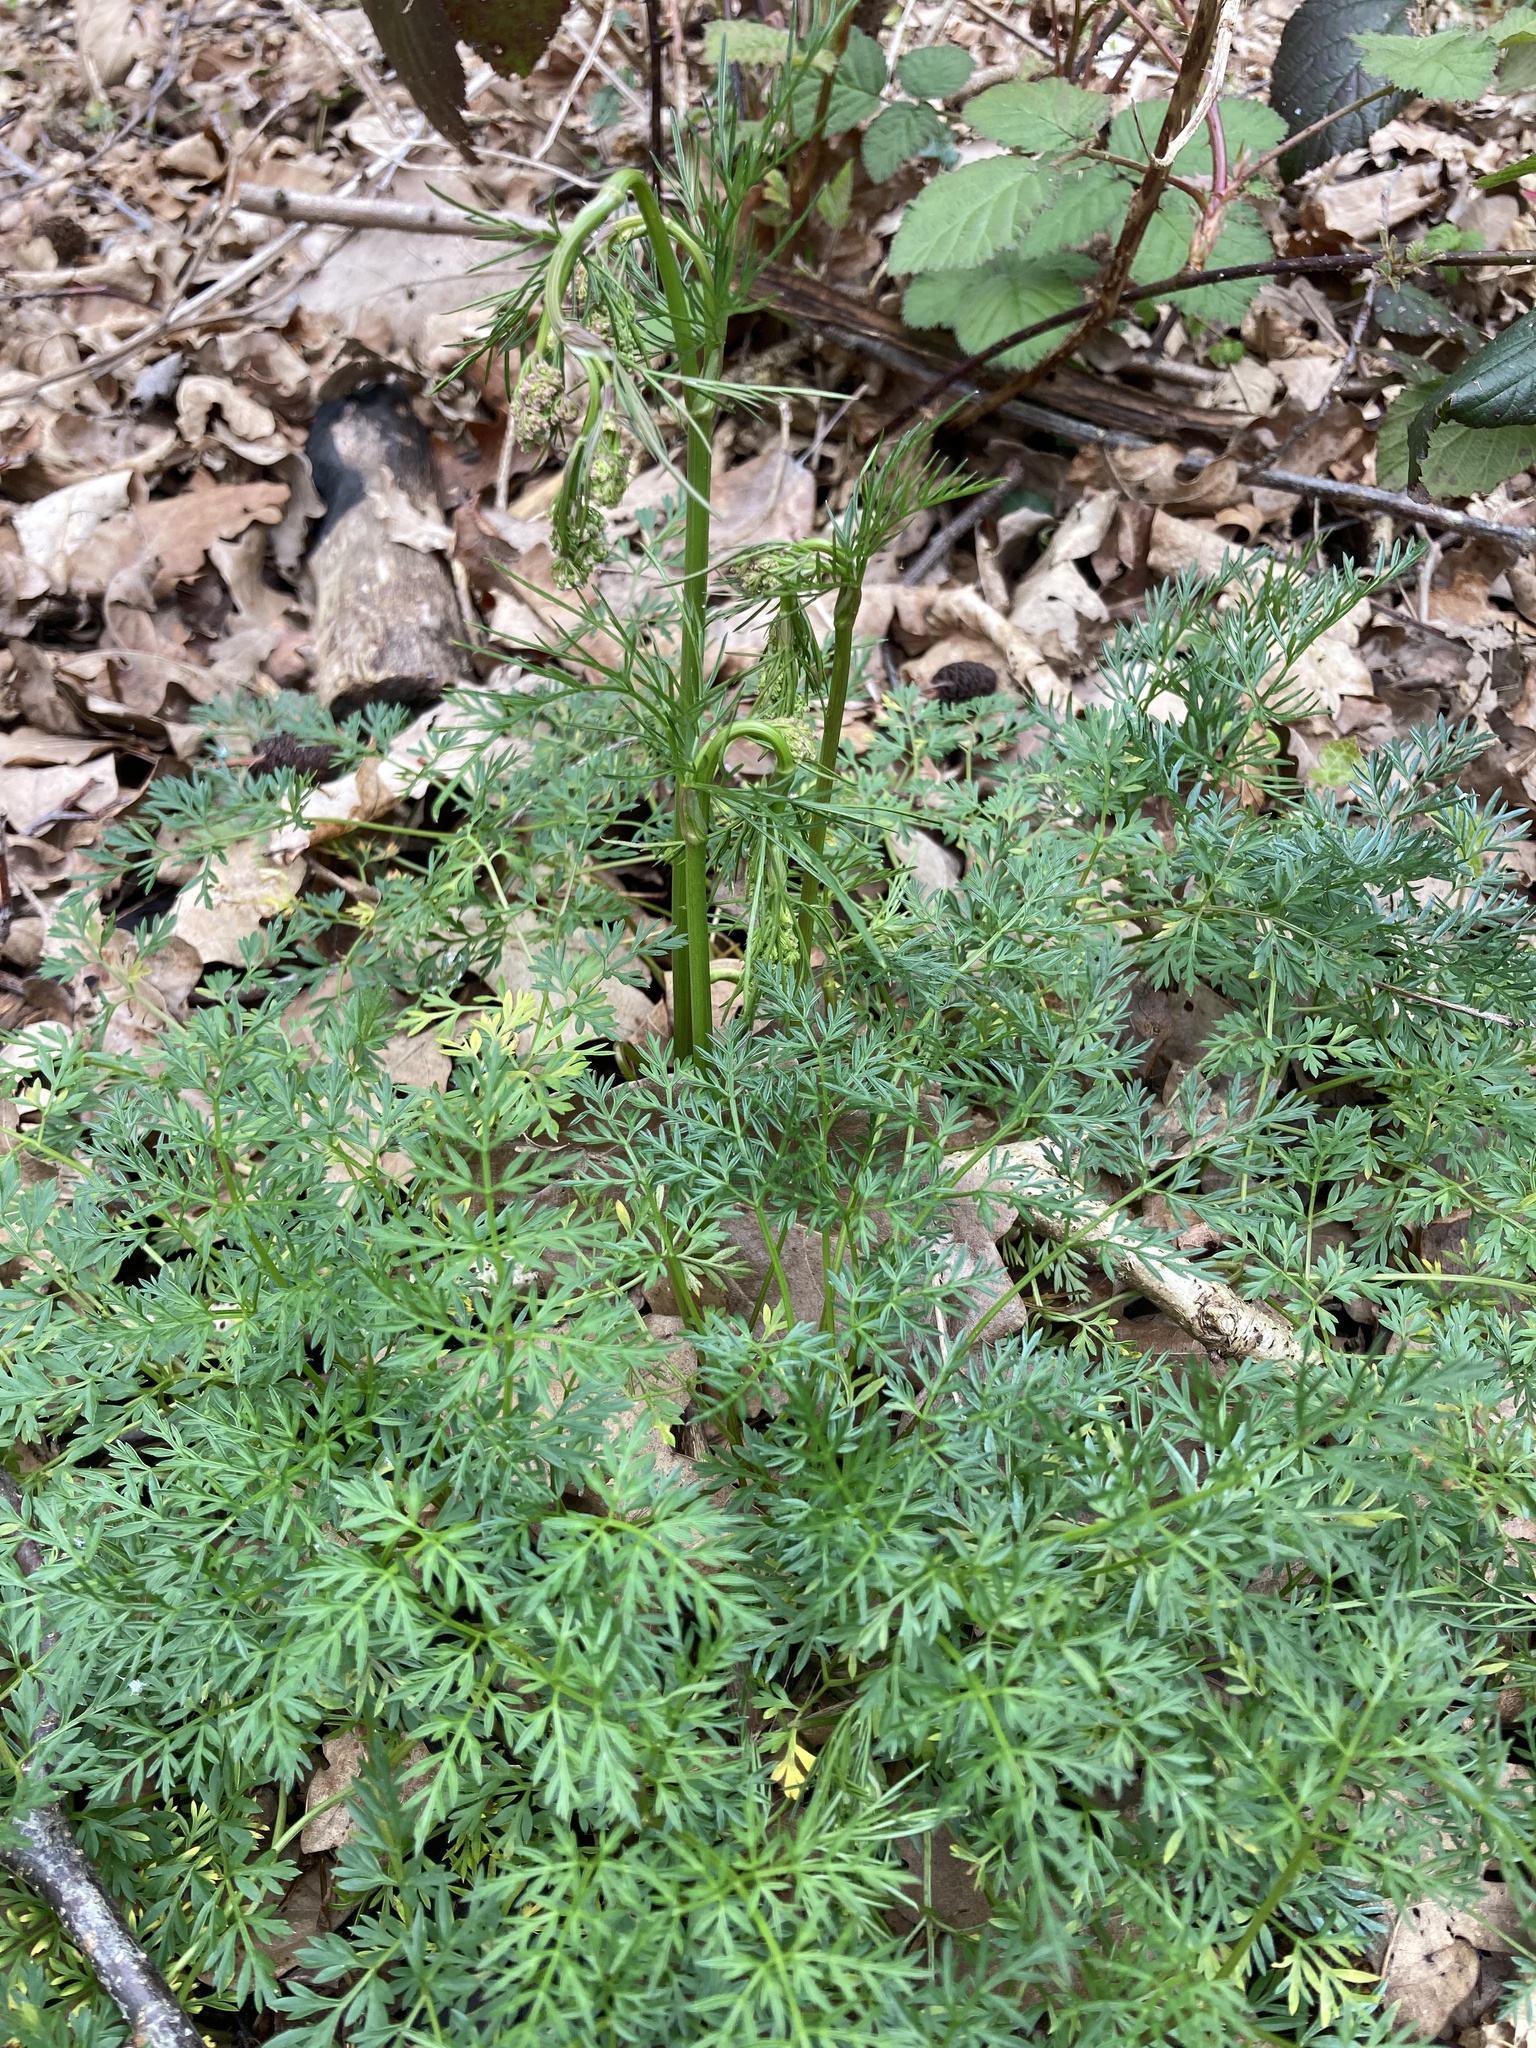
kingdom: Plantae
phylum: Tracheophyta
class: Magnoliopsida
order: Apiales
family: Apiaceae
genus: Conopodium
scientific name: Conopodium majus
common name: Pignut
